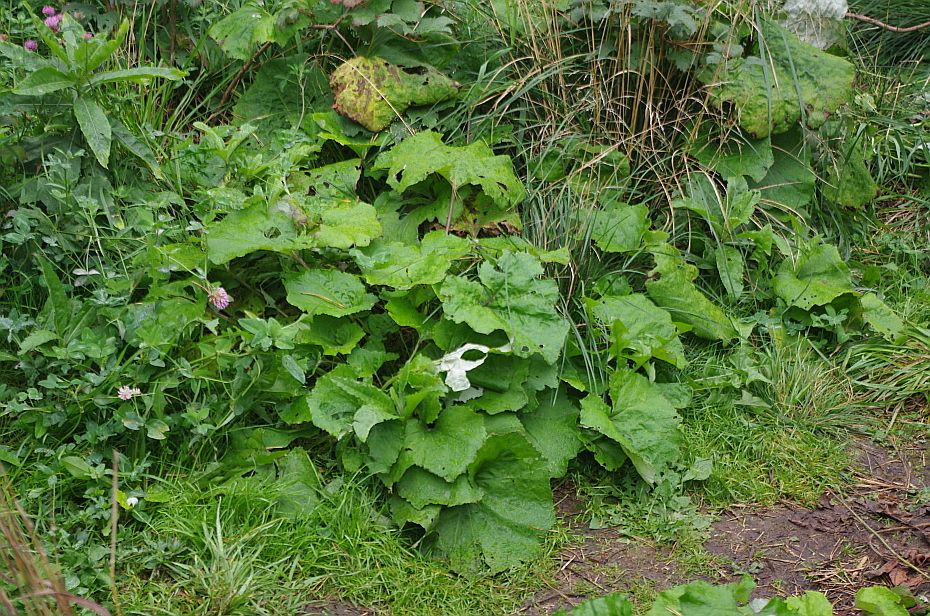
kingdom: Plantae
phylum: Tracheophyta
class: Magnoliopsida
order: Asterales
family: Asteraceae
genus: Tussilago
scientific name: Tussilago farfara
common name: Coltsfoot
